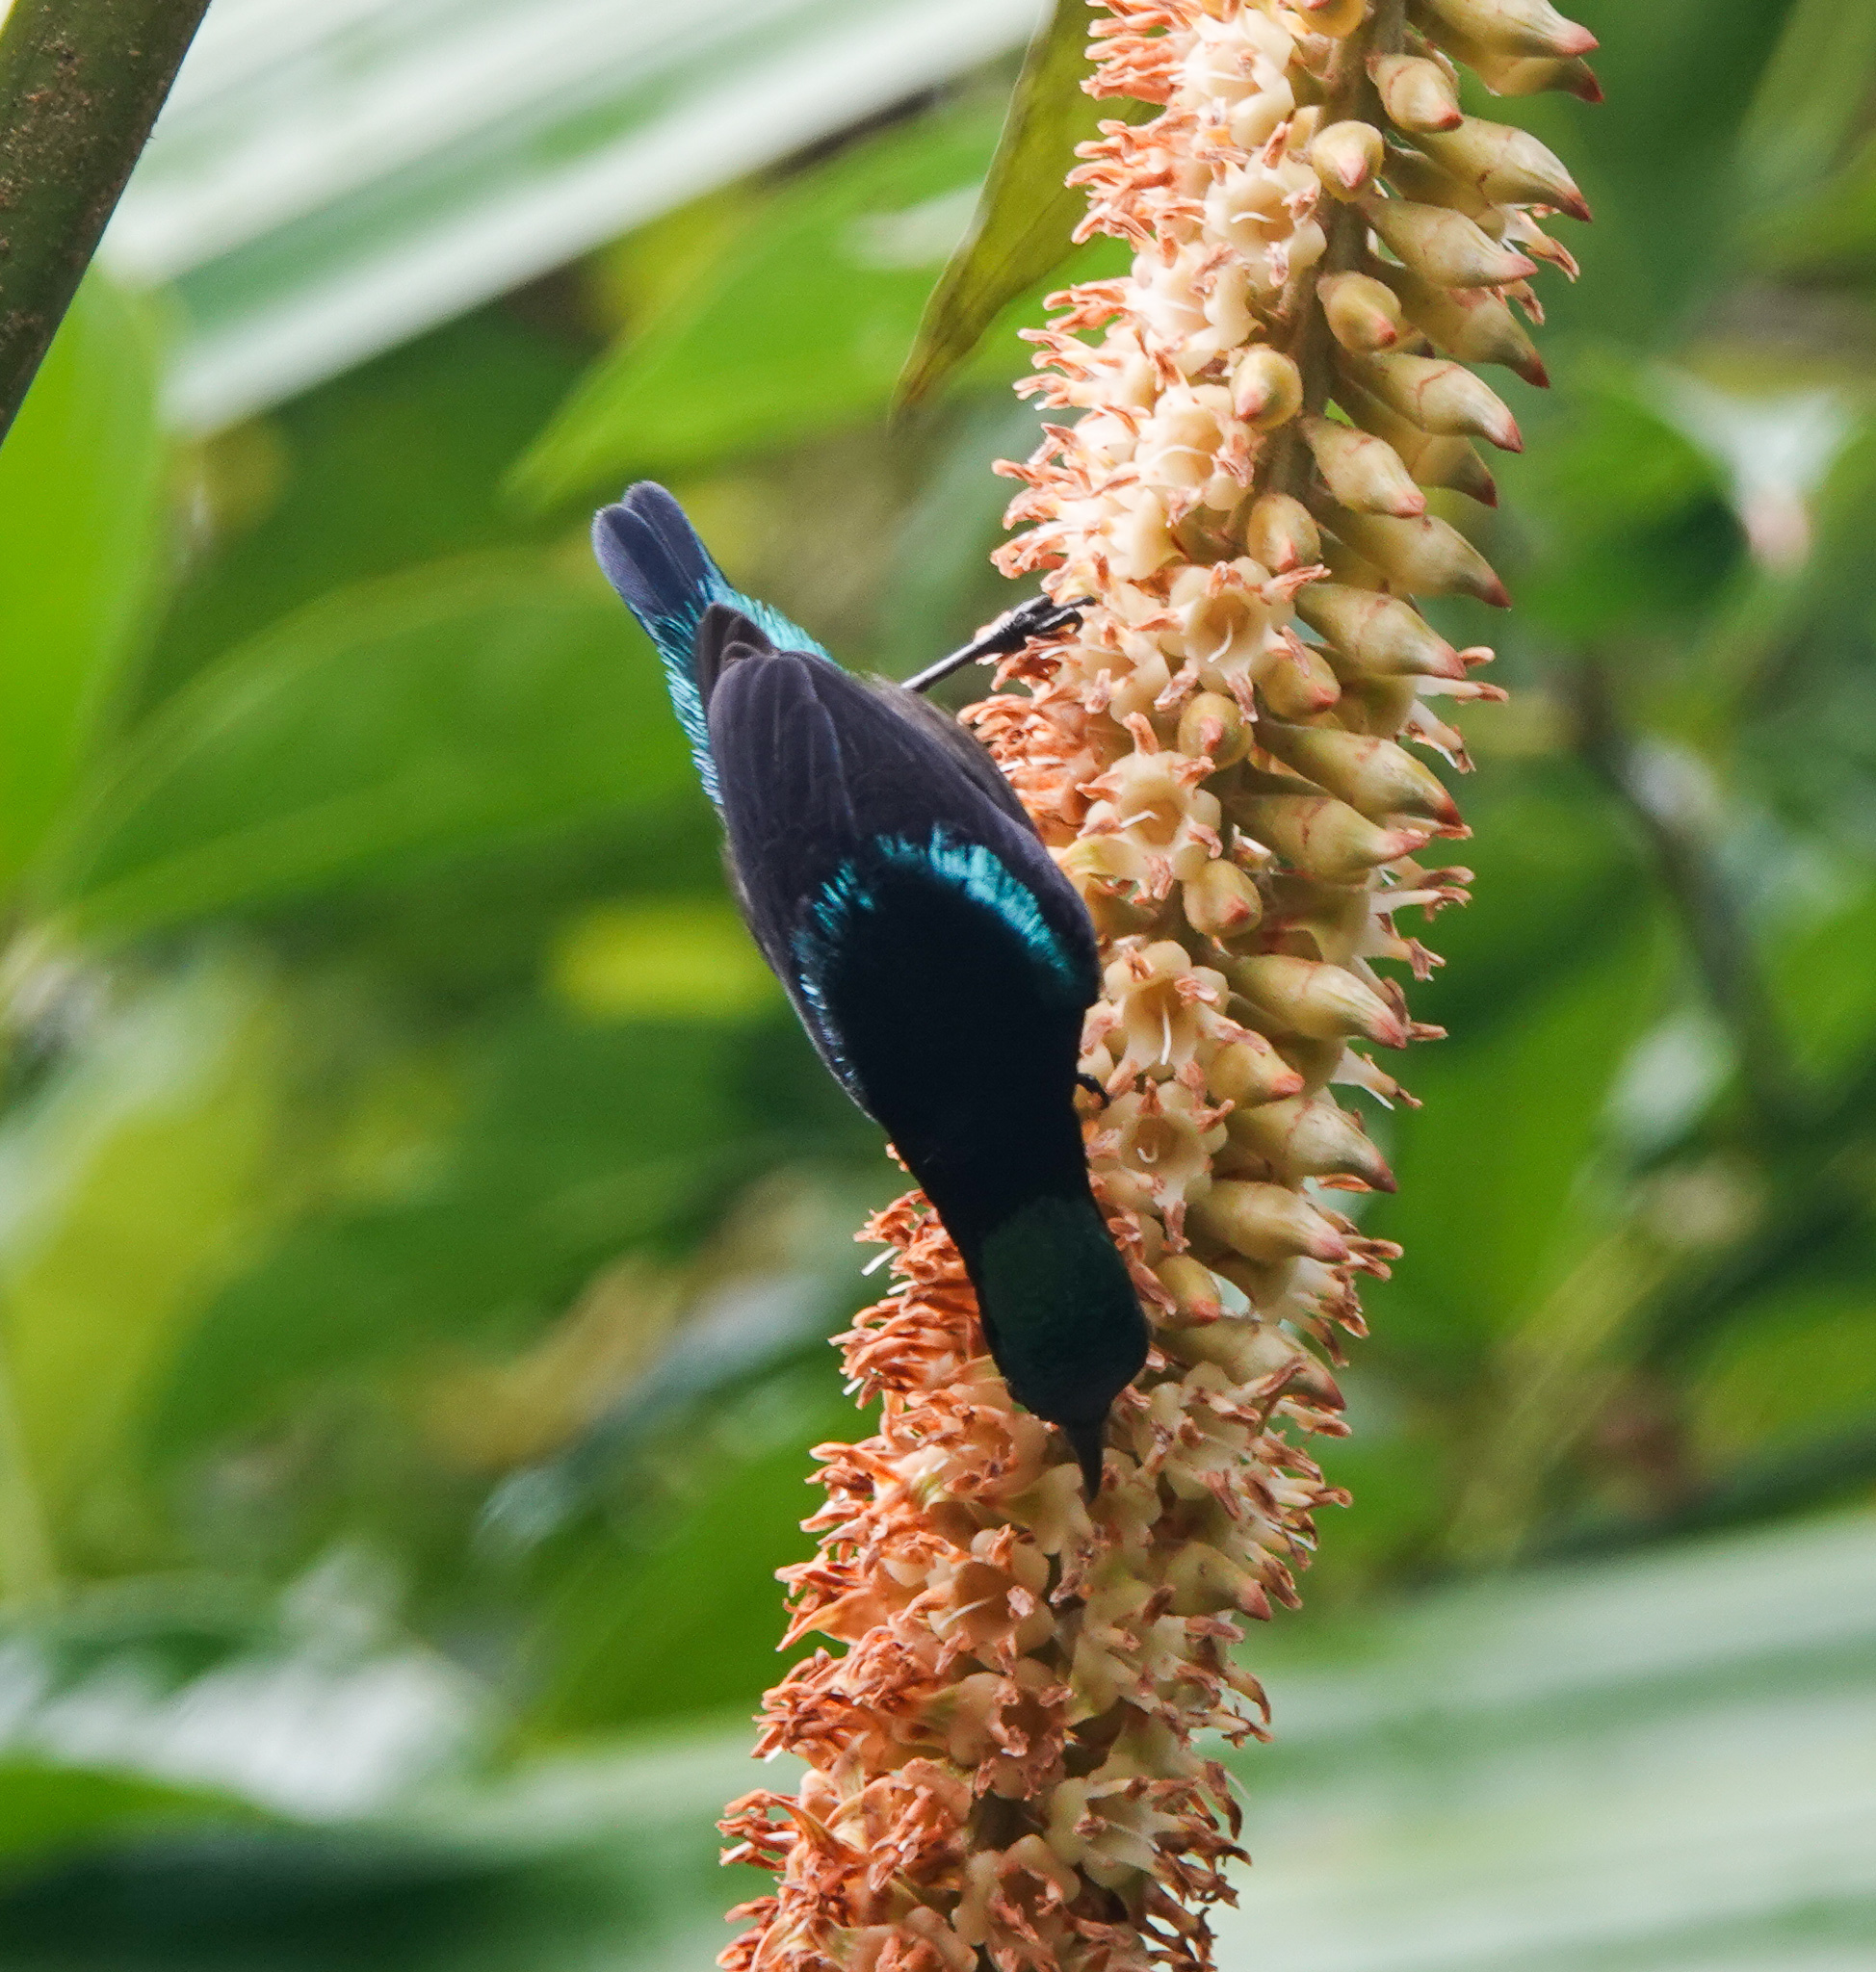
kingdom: Animalia
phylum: Chordata
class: Aves
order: Passeriformes
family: Nectariniidae
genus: Leptocoma
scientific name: Leptocoma brasiliana
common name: Van hasselt's sunbird
